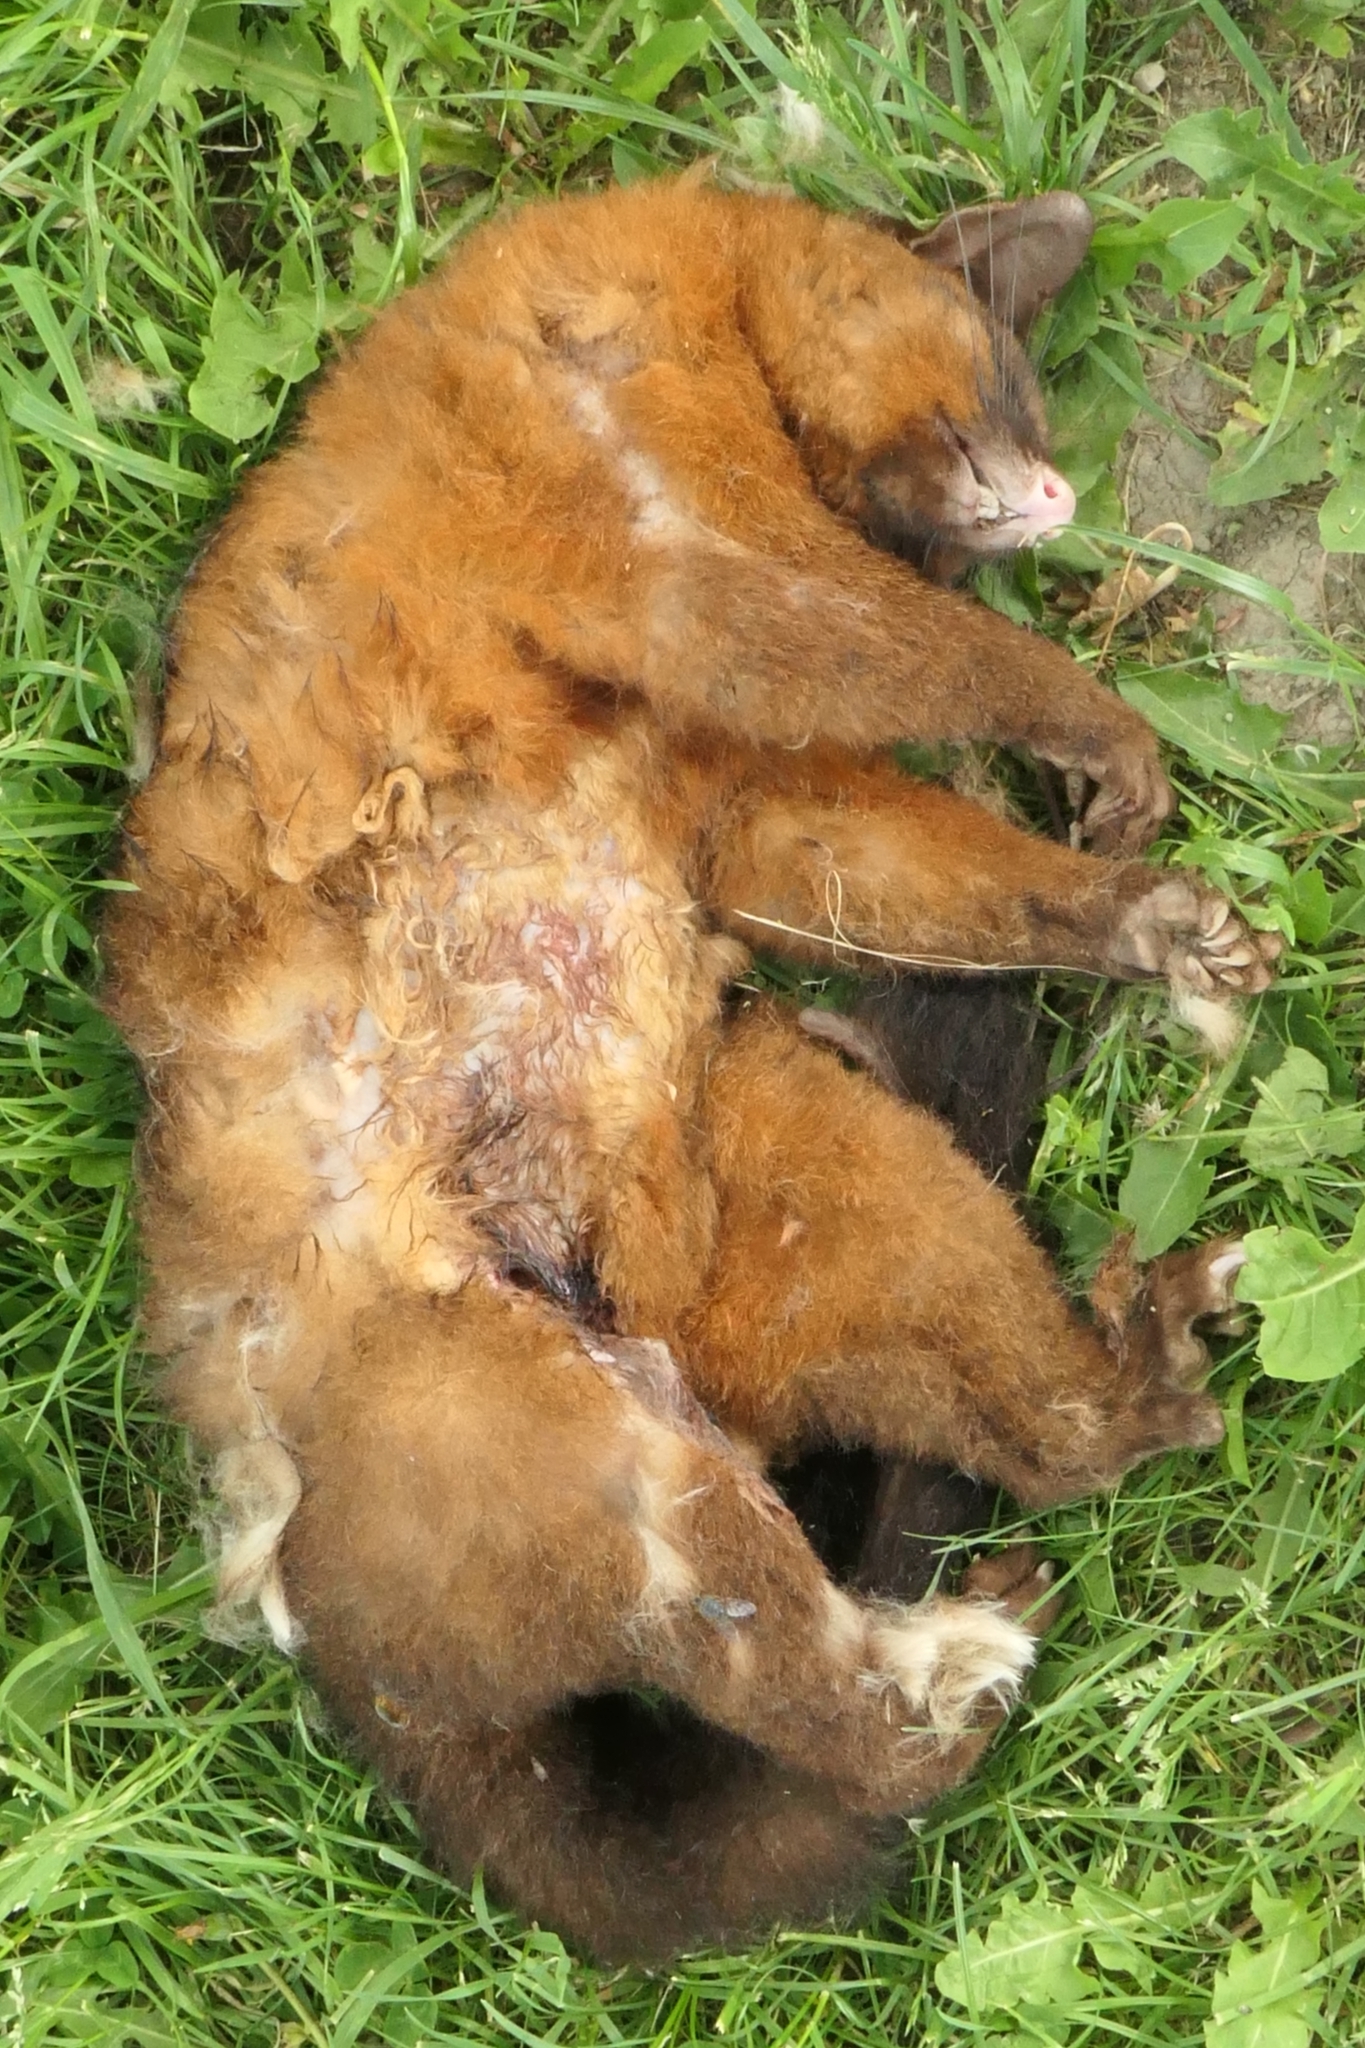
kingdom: Animalia
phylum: Chordata
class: Mammalia
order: Diprotodontia
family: Phalangeridae
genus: Trichosurus
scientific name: Trichosurus vulpecula
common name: Common brushtail
